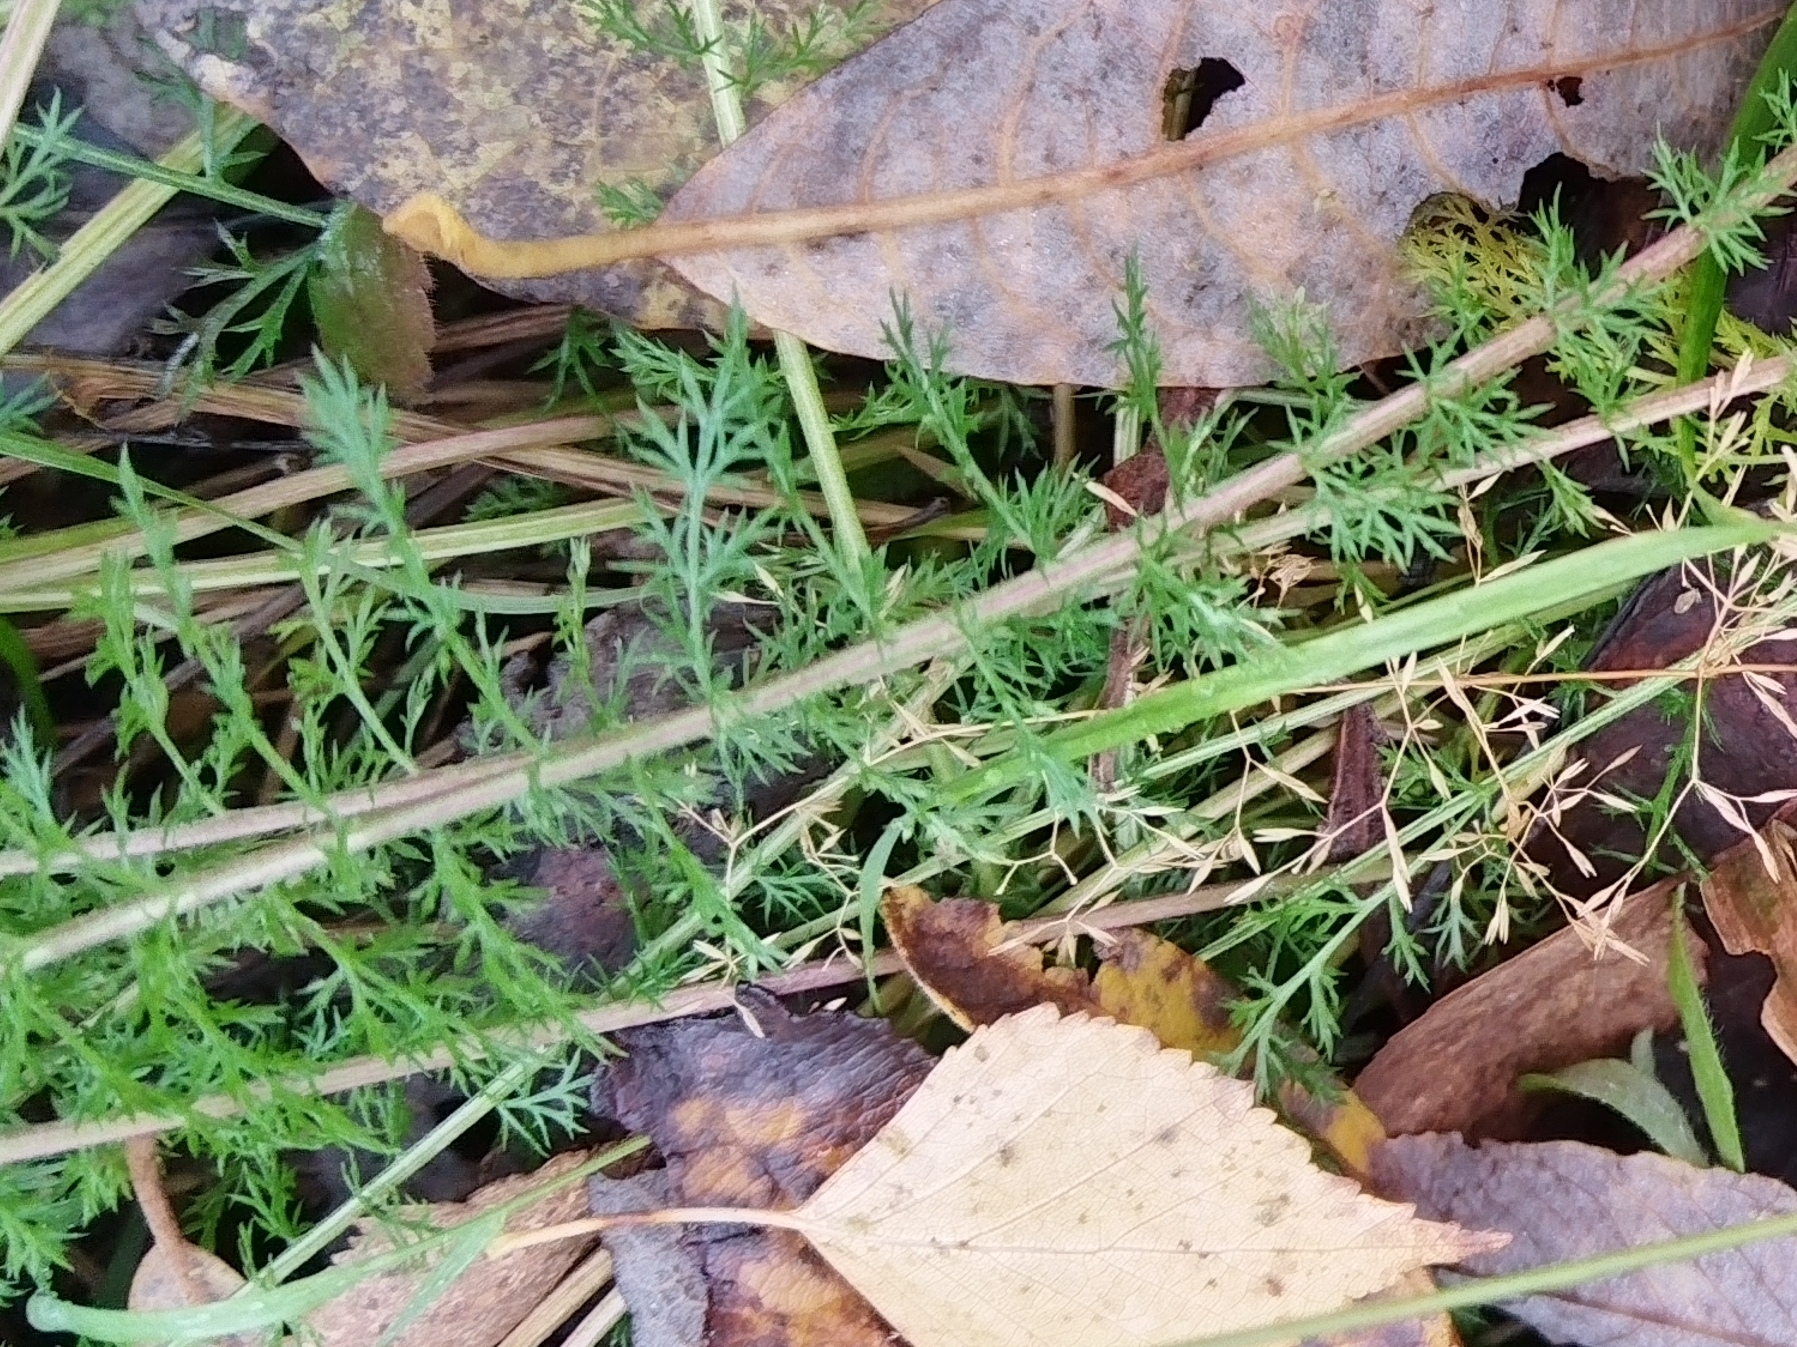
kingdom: Plantae
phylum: Tracheophyta
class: Magnoliopsida
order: Asterales
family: Asteraceae
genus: Achillea
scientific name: Achillea millefolium
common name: Yarrow
